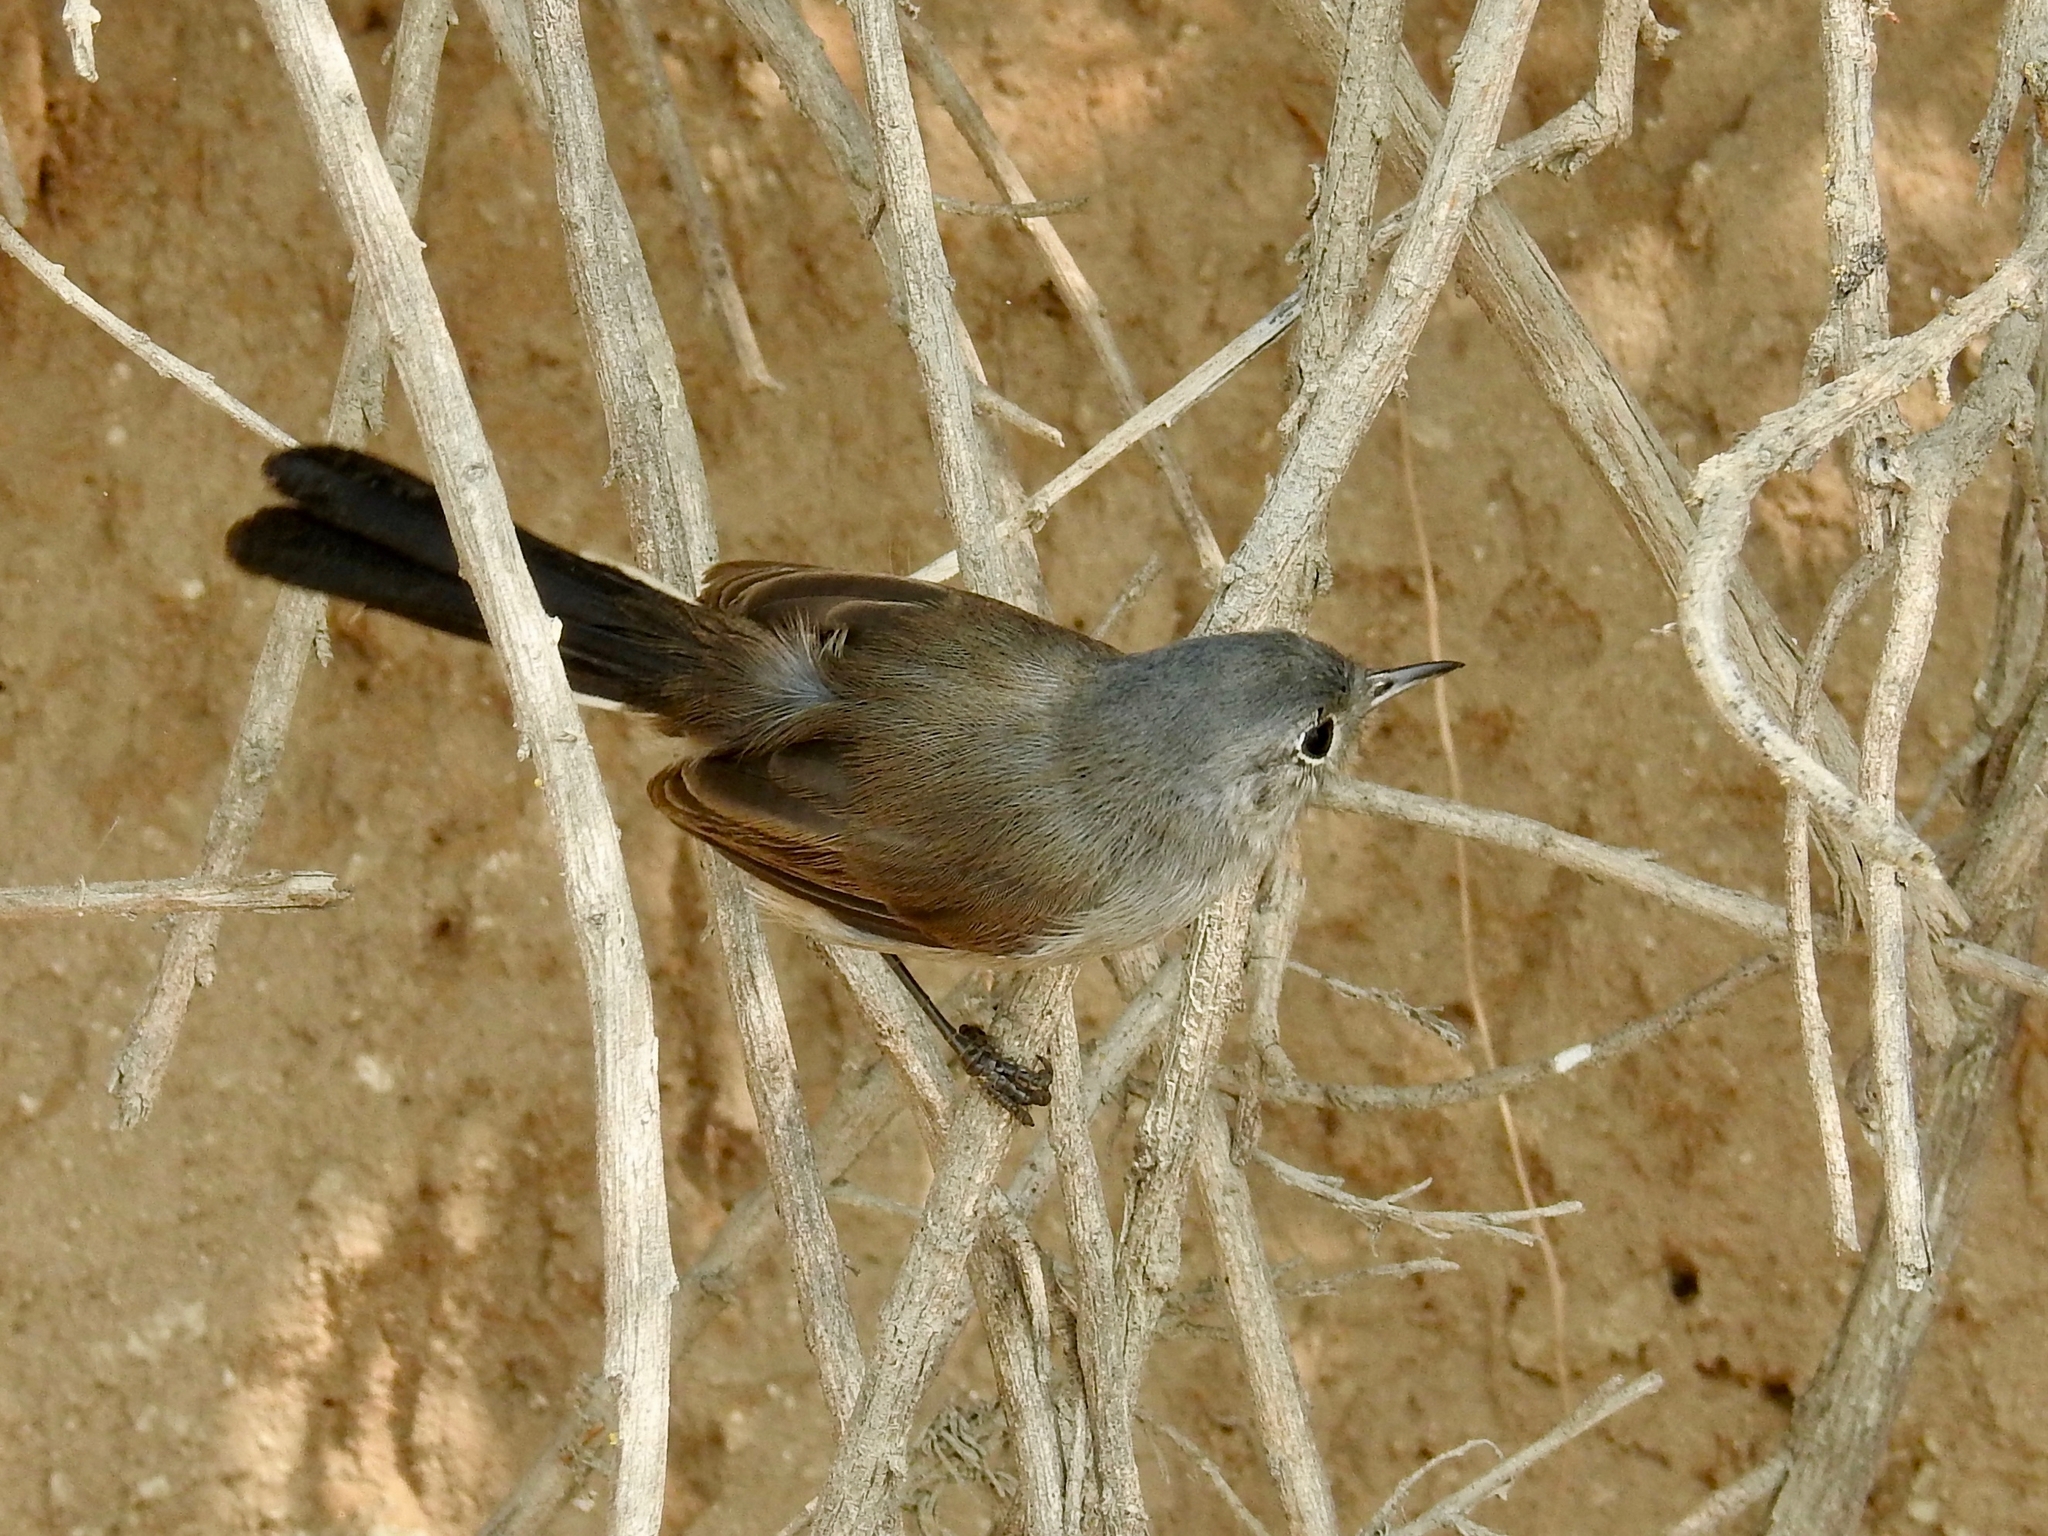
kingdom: Animalia
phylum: Chordata
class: Aves
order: Passeriformes
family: Polioptilidae
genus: Polioptila
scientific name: Polioptila californica
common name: California gnatcatcher
